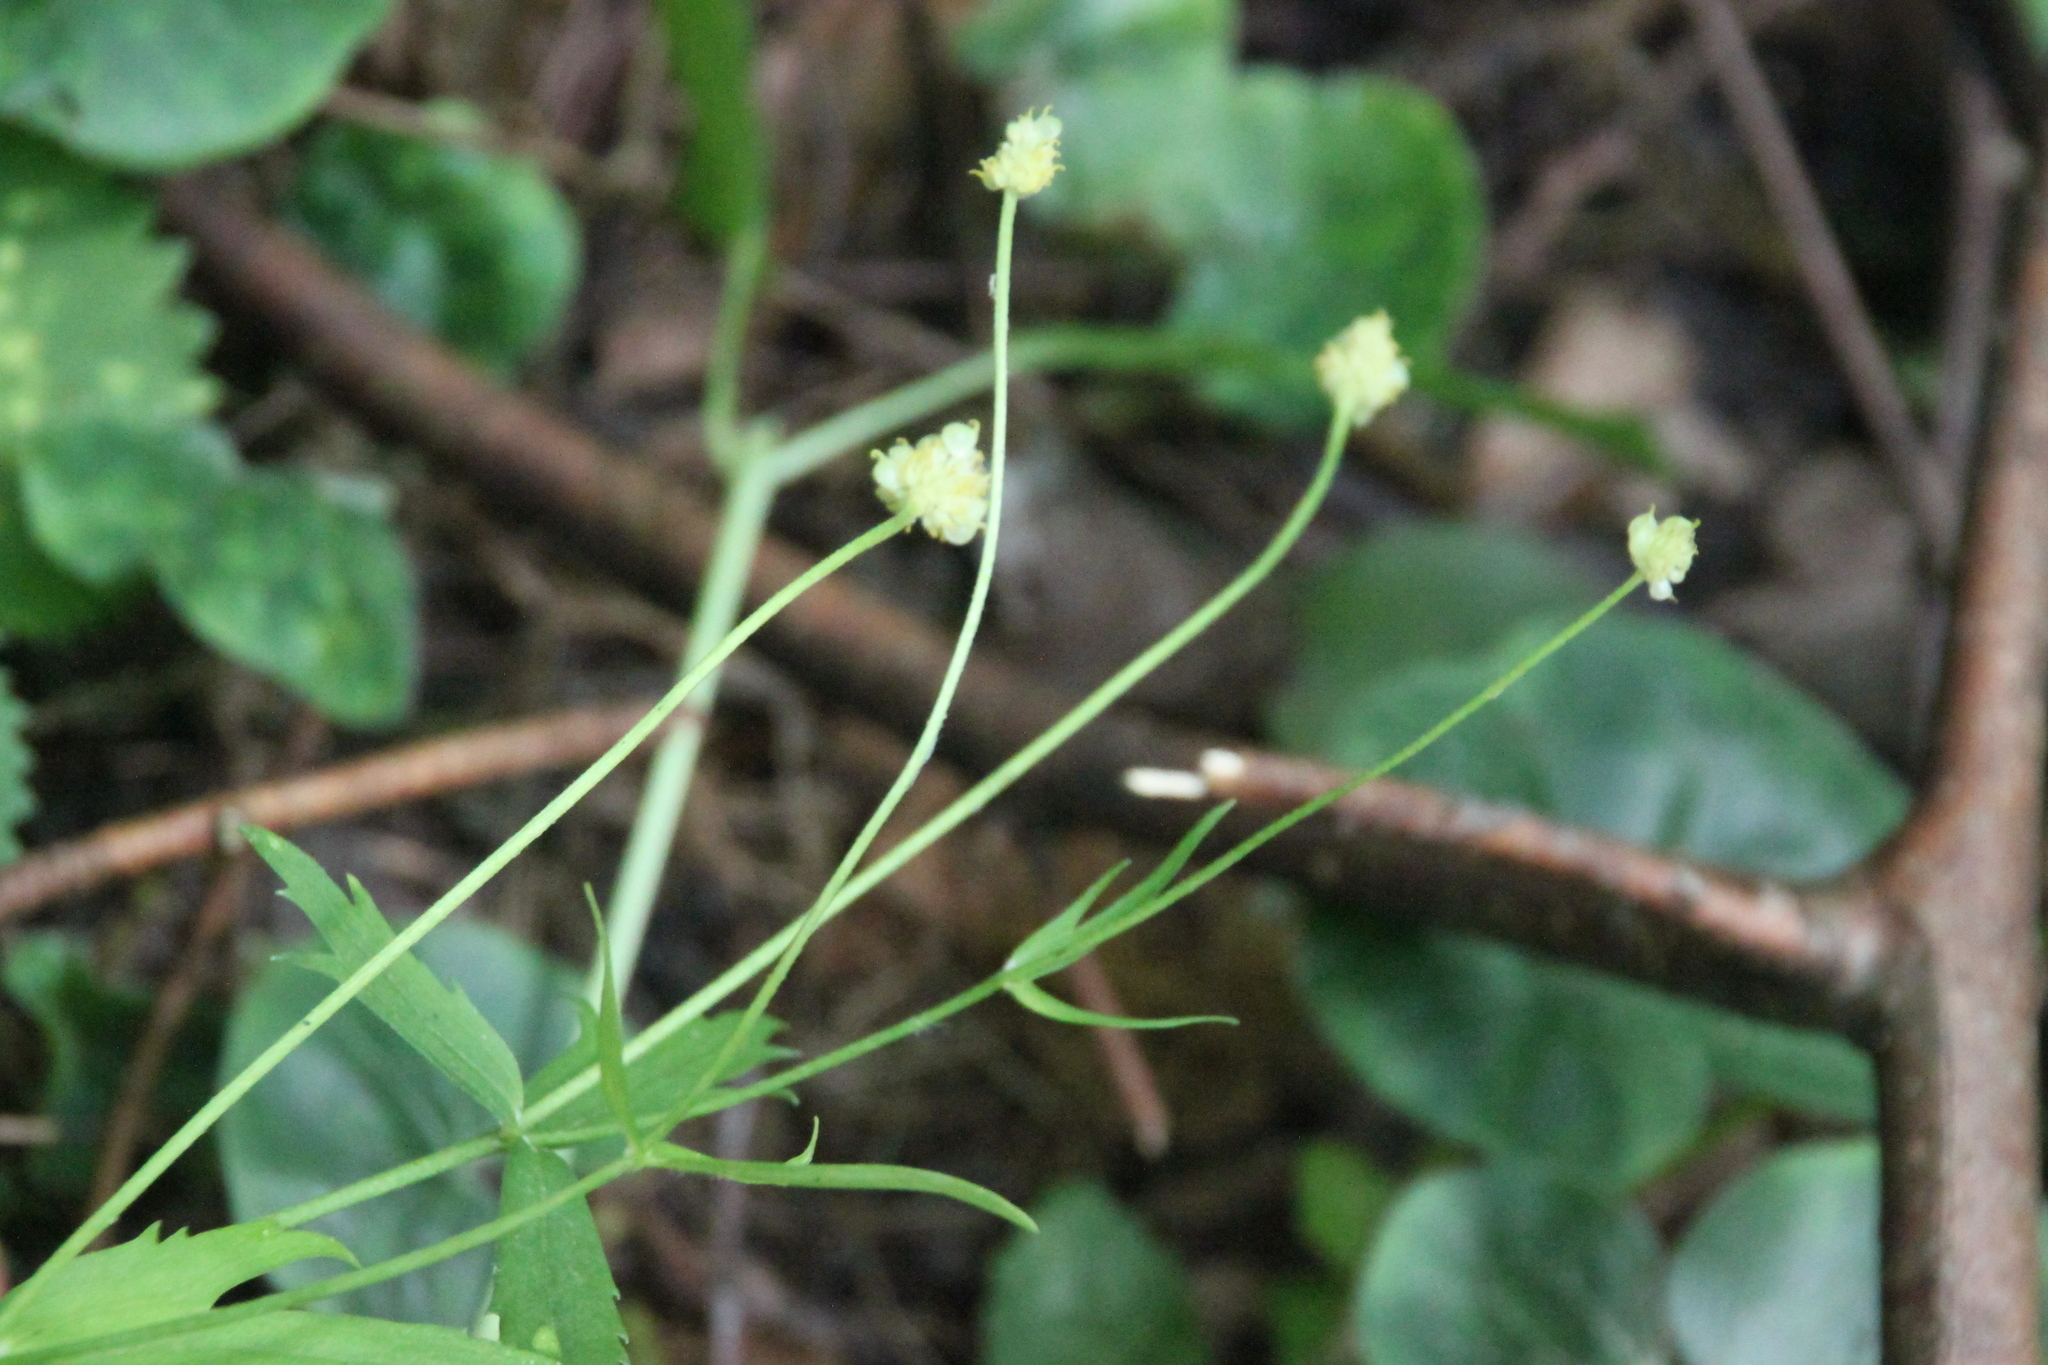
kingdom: Plantae
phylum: Tracheophyta
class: Magnoliopsida
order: Ranunculales
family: Ranunculaceae
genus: Ranunculus
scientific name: Ranunculus cassubicus
